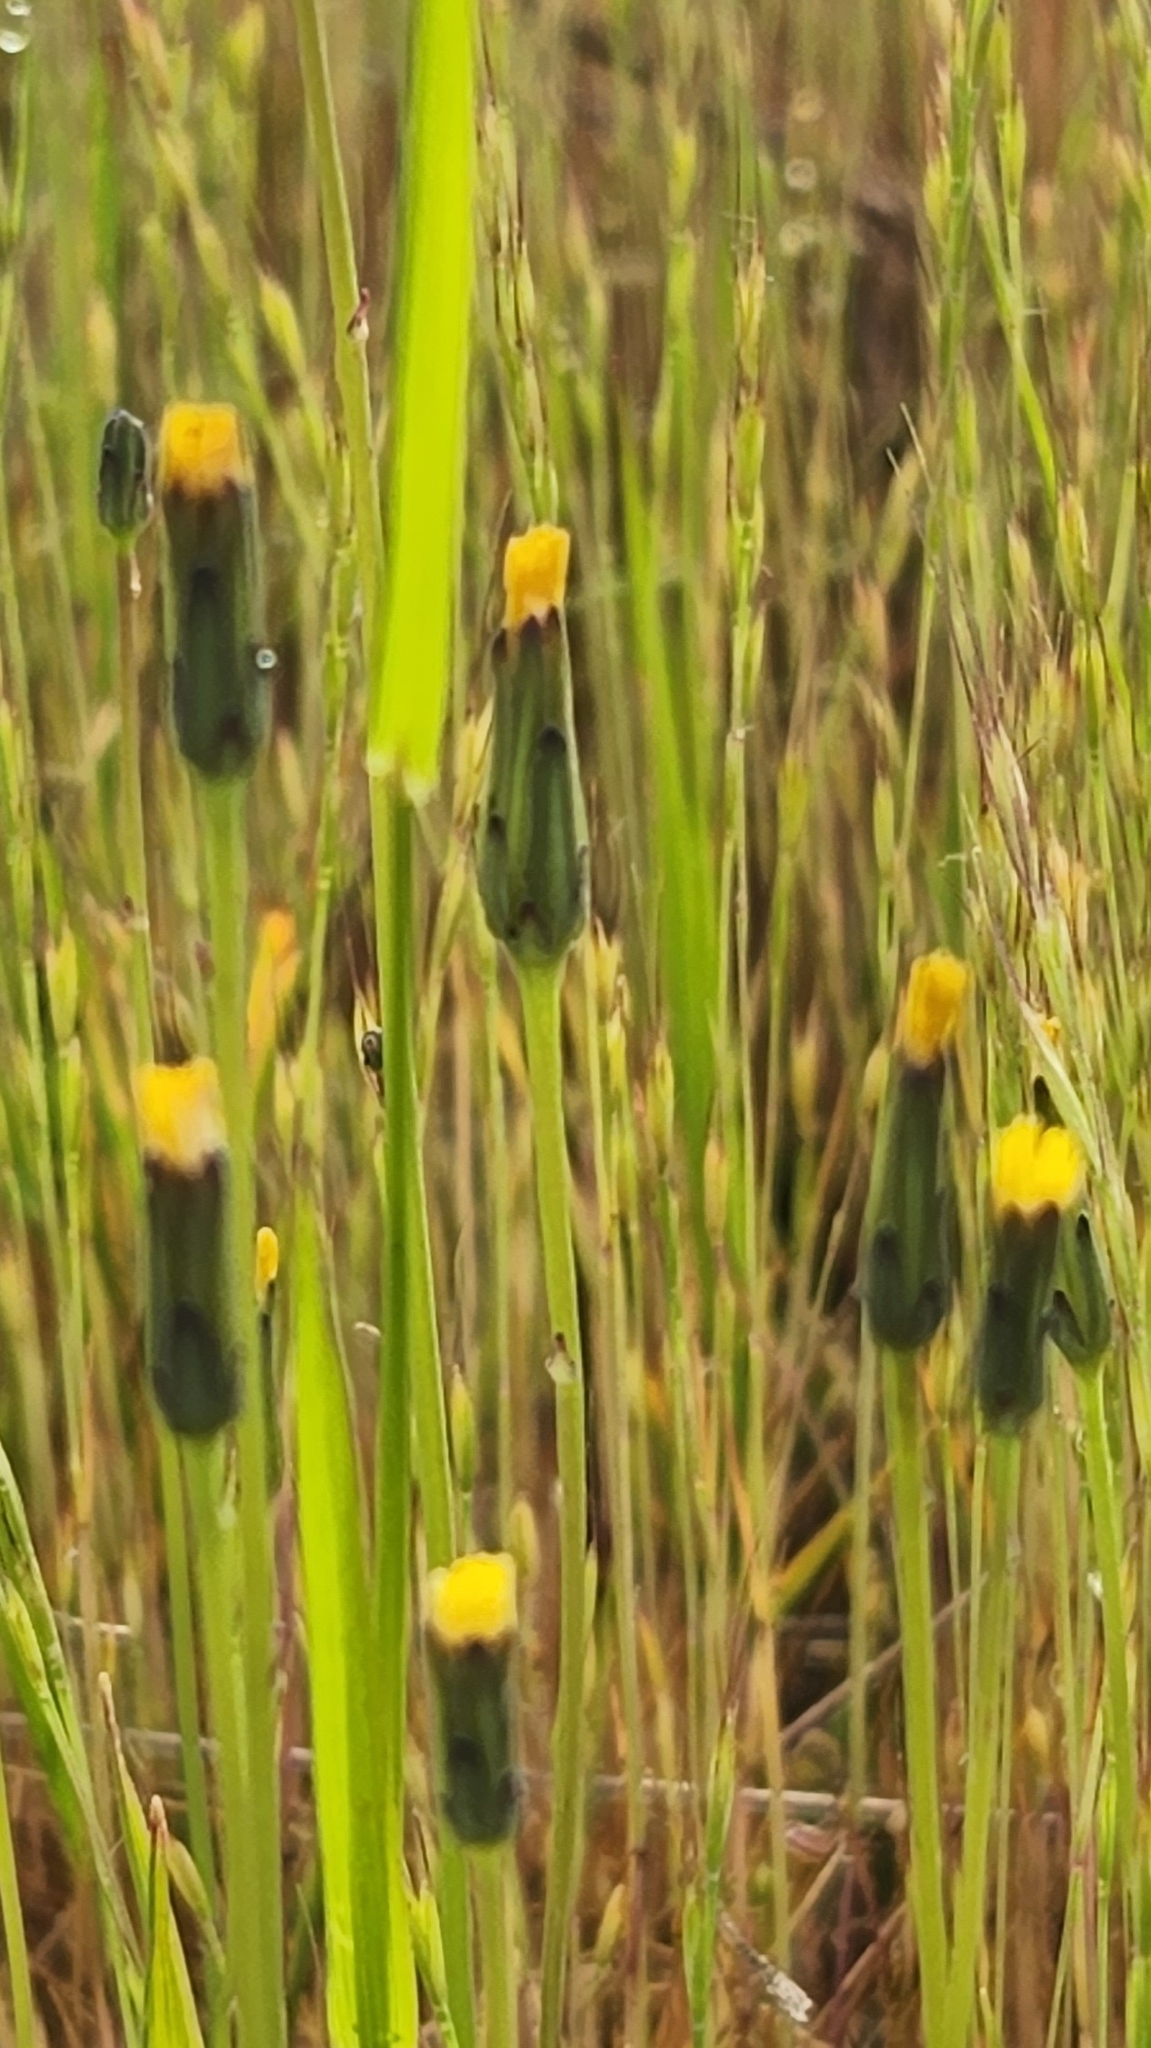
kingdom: Plantae
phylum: Tracheophyta
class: Magnoliopsida
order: Asterales
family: Asteraceae
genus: Hypochaeris
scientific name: Hypochaeris glabra
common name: Smooth catsear
